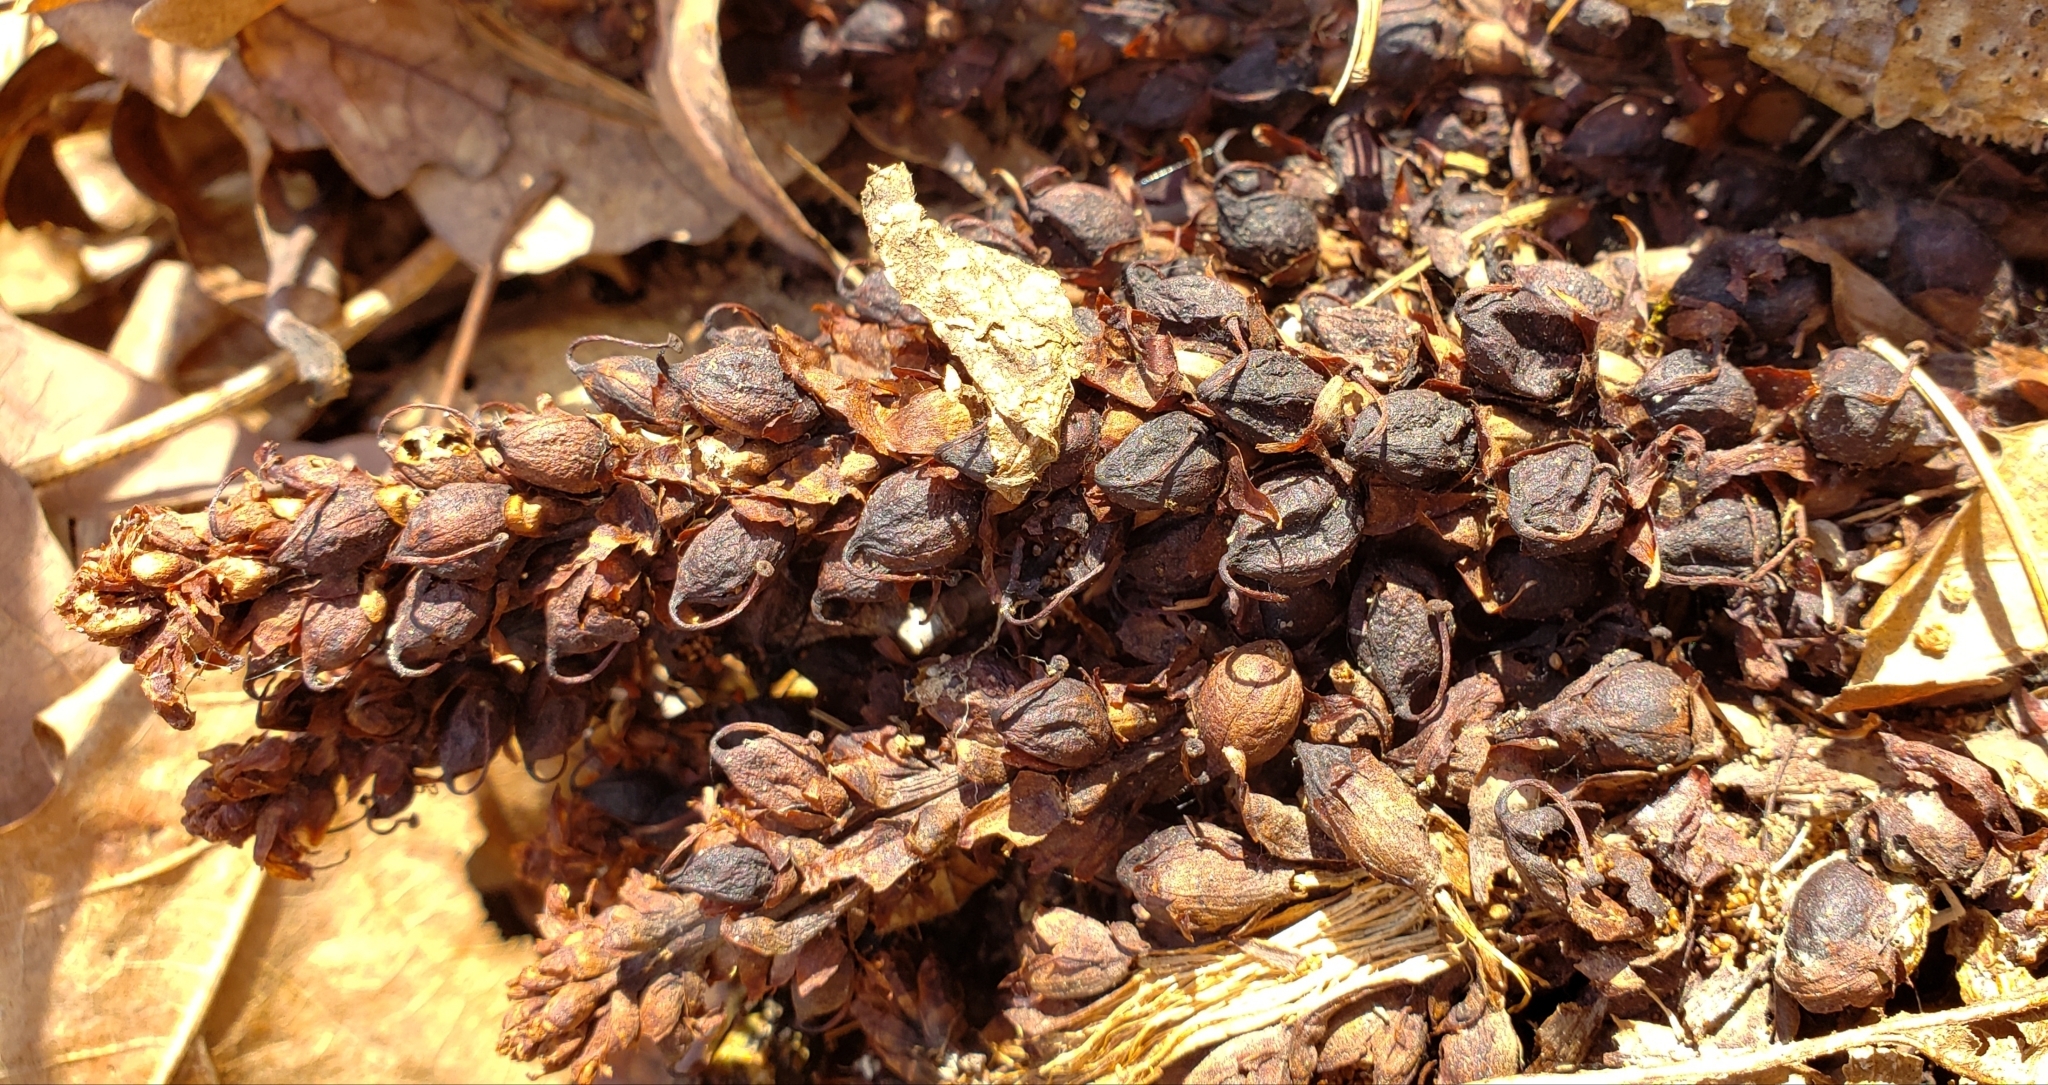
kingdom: Plantae
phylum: Tracheophyta
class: Magnoliopsida
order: Lamiales
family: Orobanchaceae
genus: Conopholis
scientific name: Conopholis americana
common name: American cancer-root
